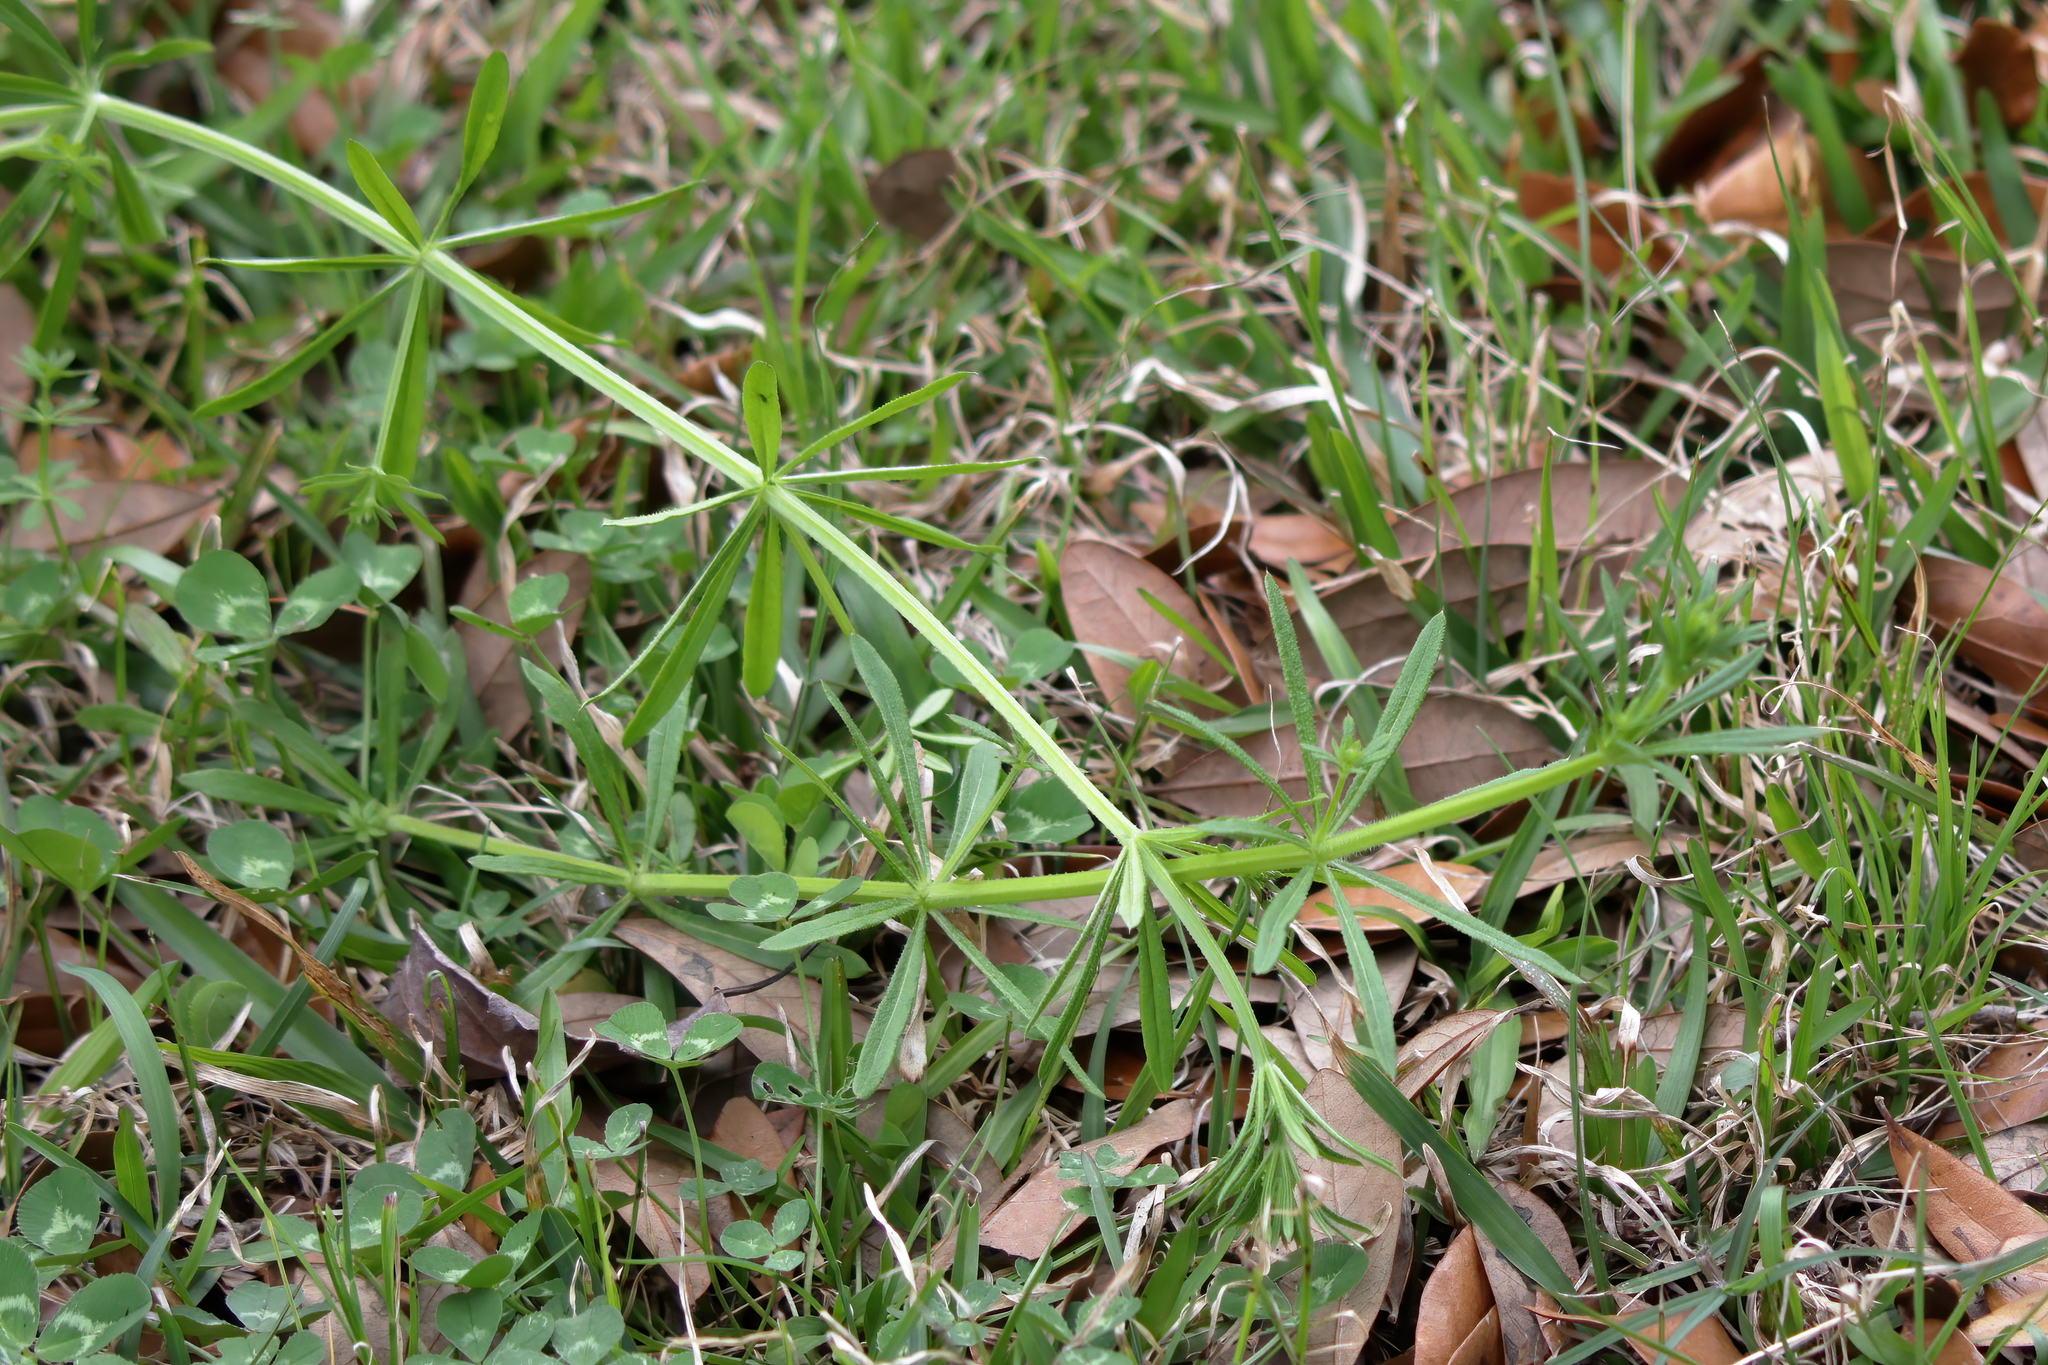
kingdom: Plantae
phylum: Tracheophyta
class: Magnoliopsida
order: Gentianales
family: Rubiaceae
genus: Galium
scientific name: Galium aparine
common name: Cleavers
